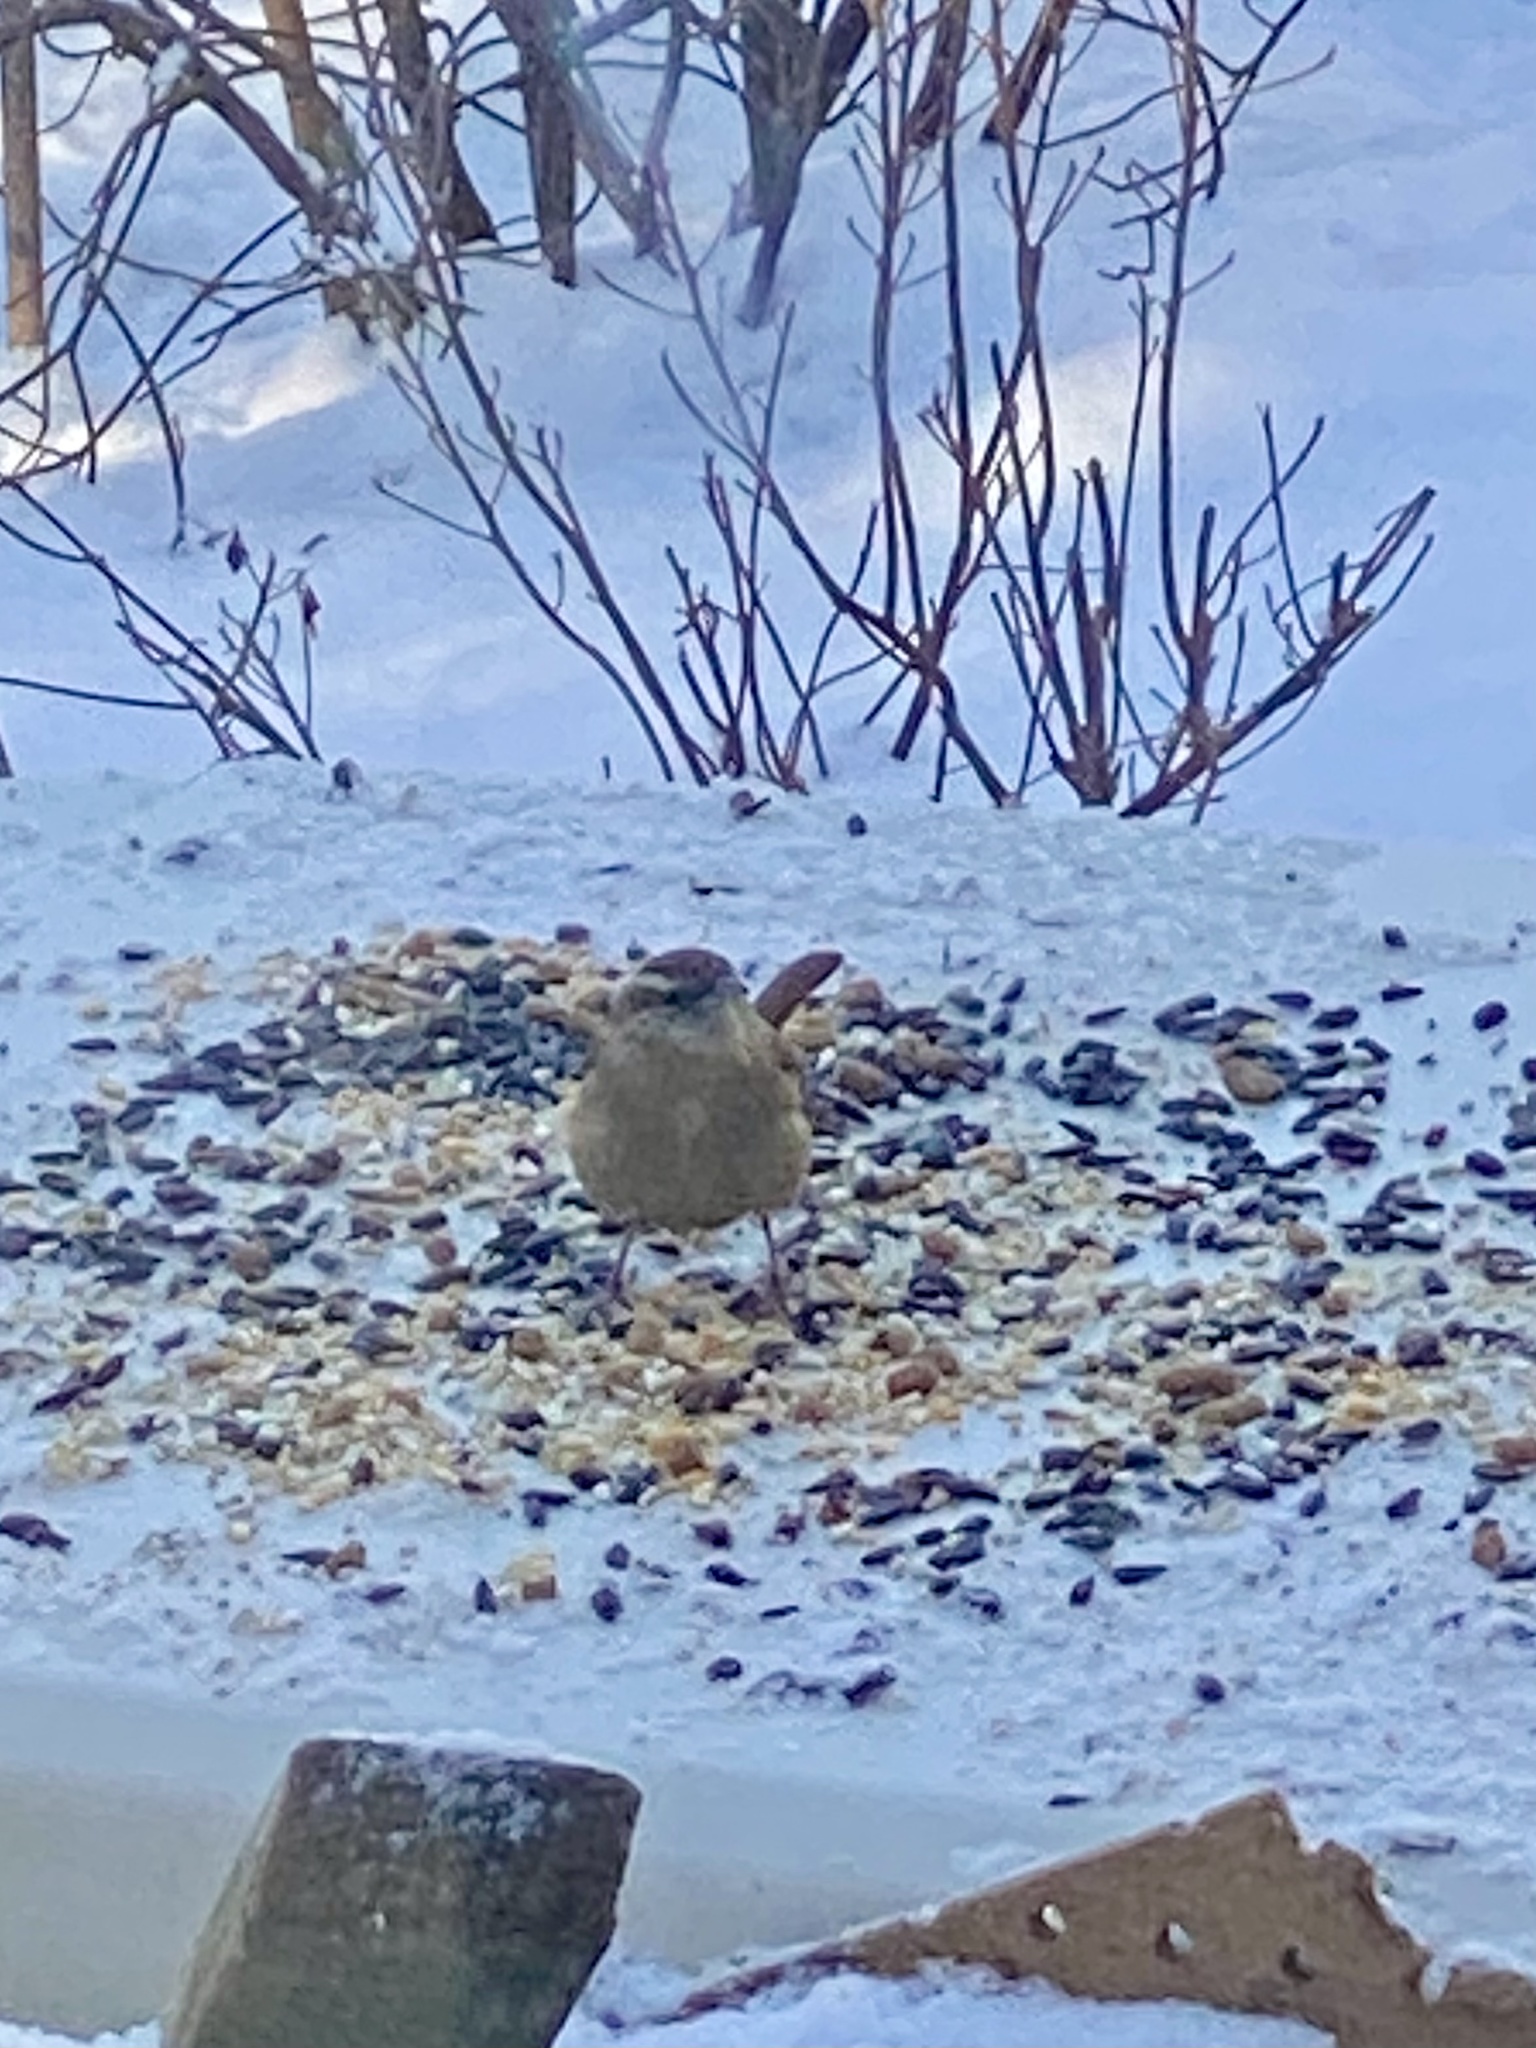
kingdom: Animalia
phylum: Chordata
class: Aves
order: Passeriformes
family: Troglodytidae
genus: Thryothorus
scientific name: Thryothorus ludovicianus
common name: Carolina wren
